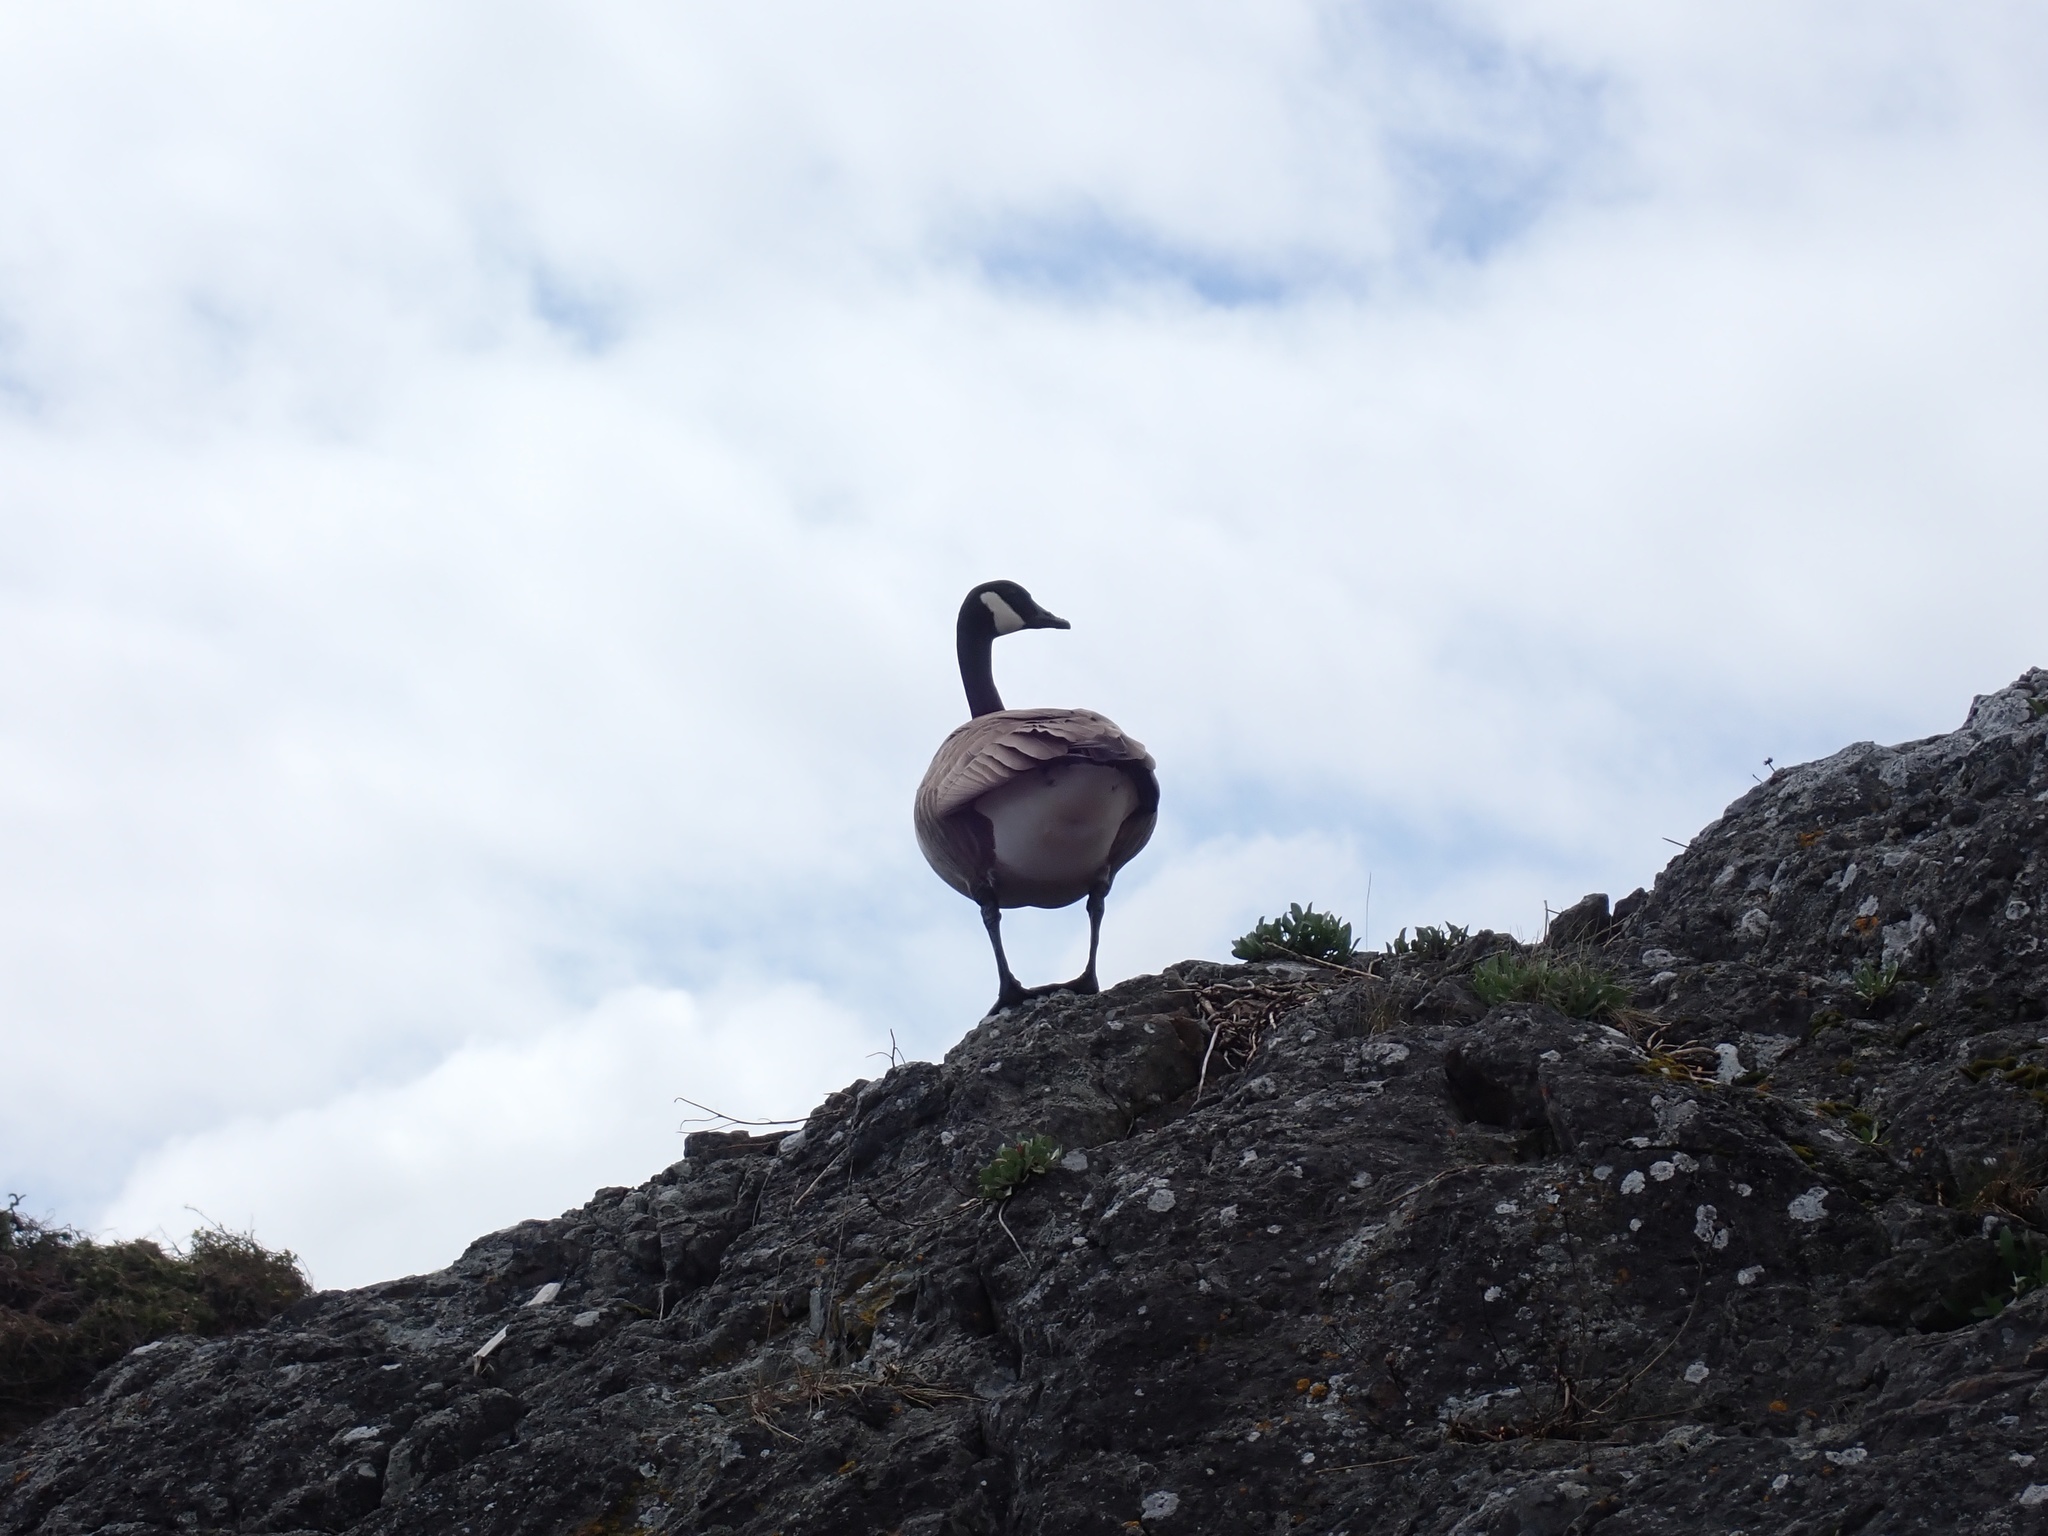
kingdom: Animalia
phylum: Chordata
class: Aves
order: Anseriformes
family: Anatidae
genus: Branta
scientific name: Branta canadensis
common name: Canada goose
